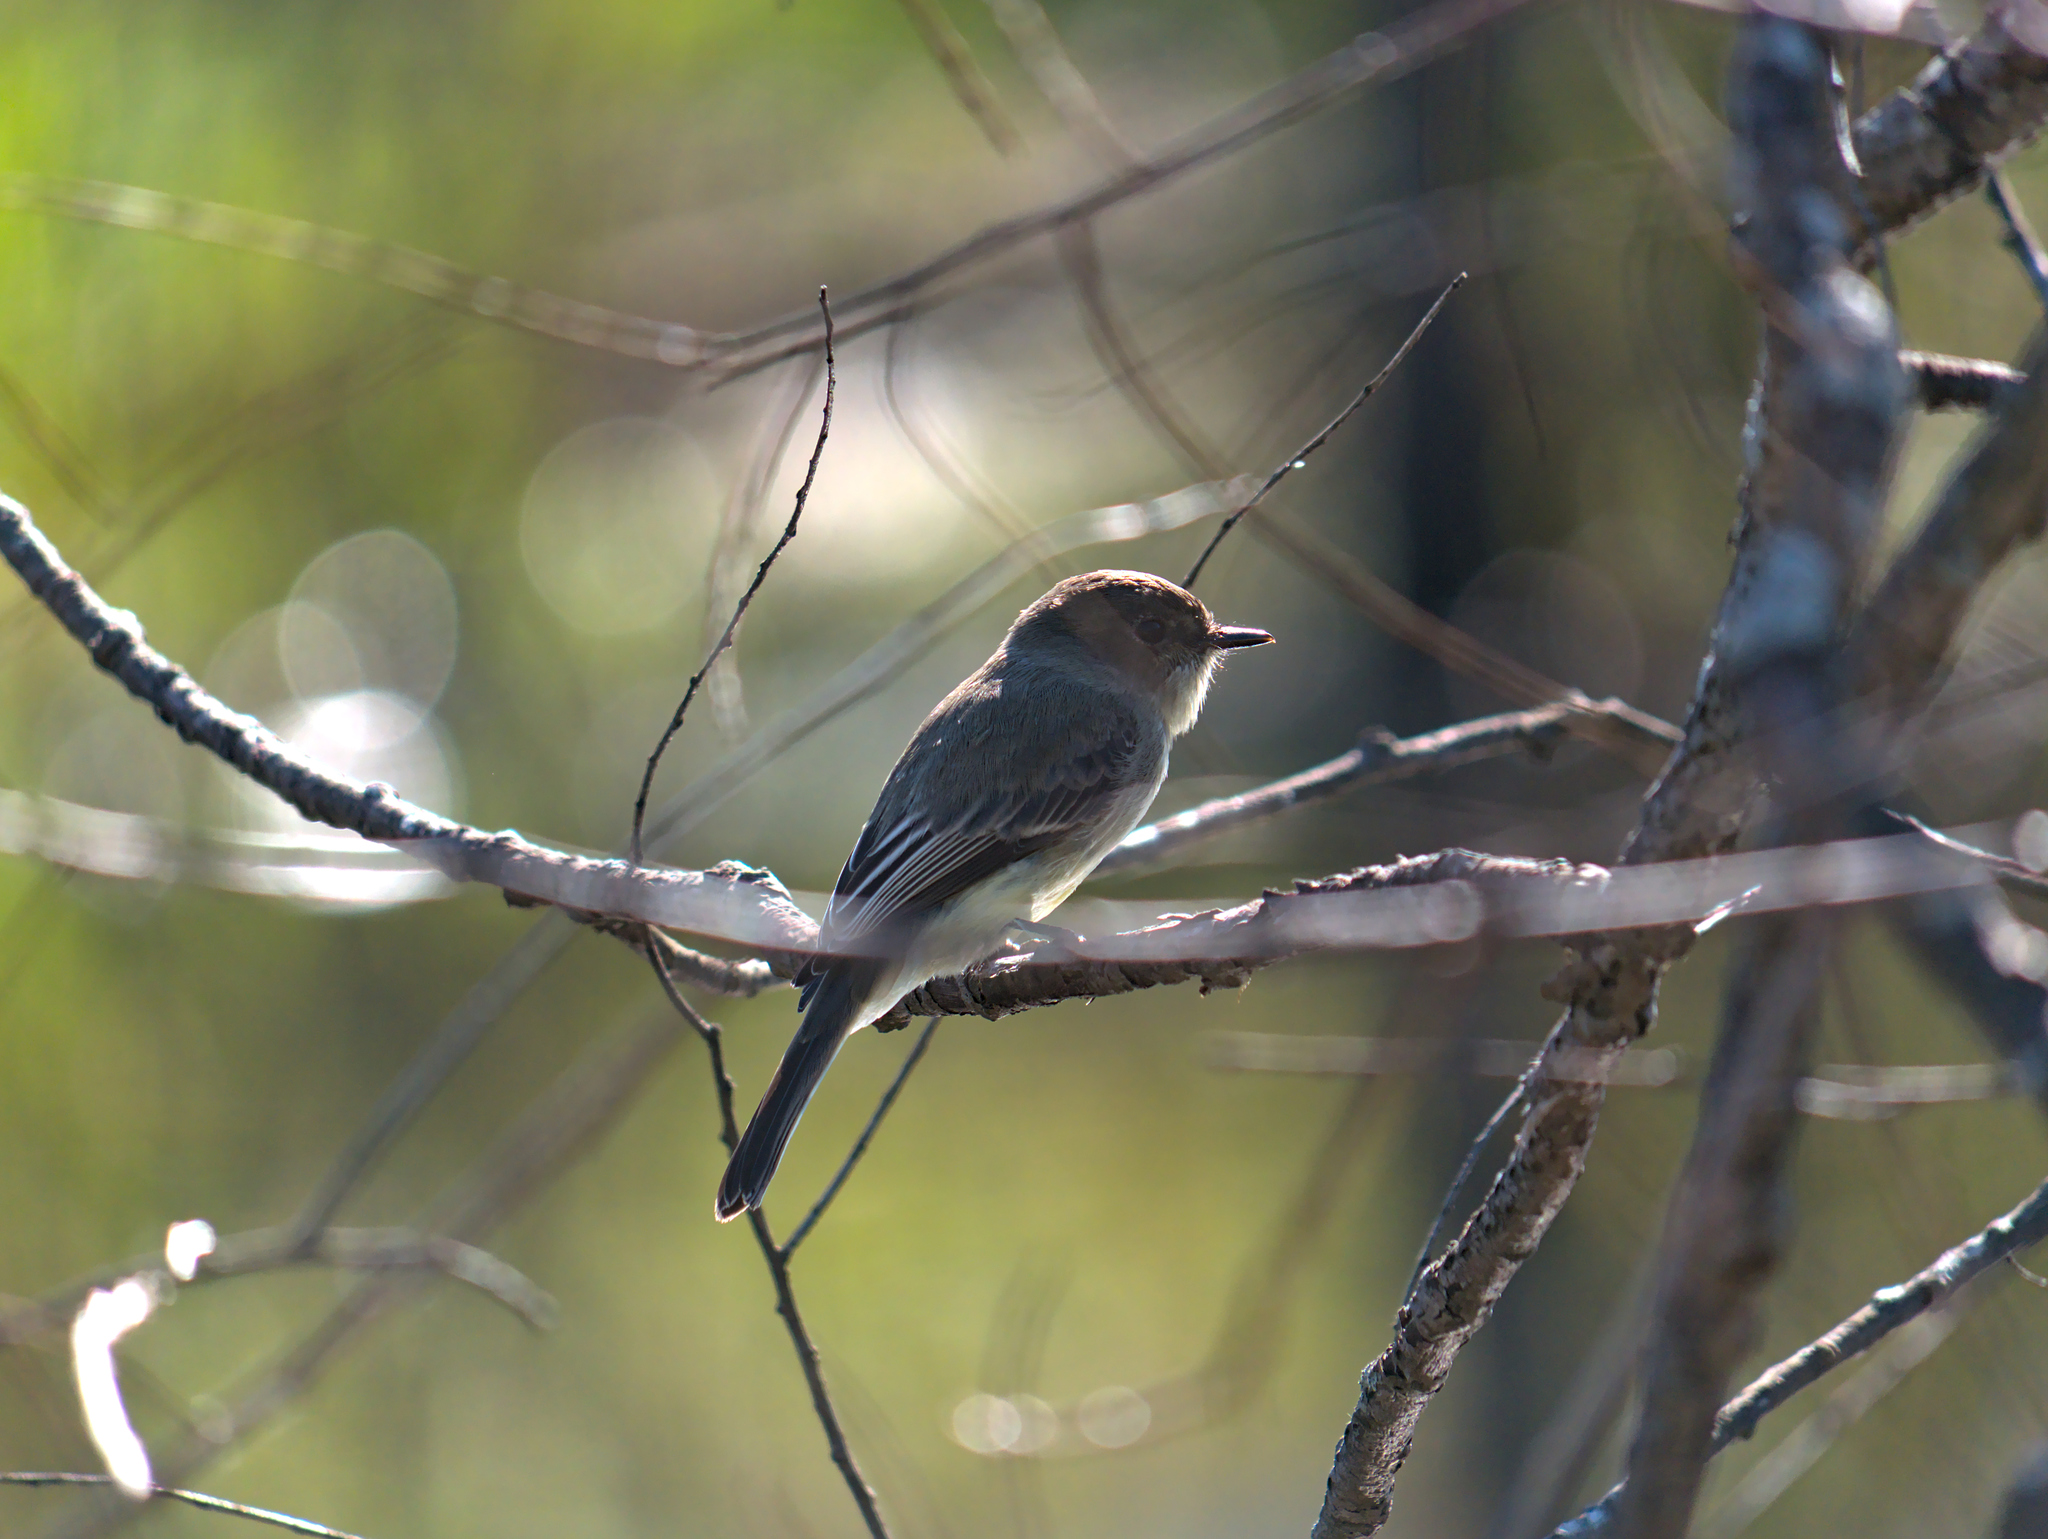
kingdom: Animalia
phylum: Chordata
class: Aves
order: Passeriformes
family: Tyrannidae
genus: Sayornis
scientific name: Sayornis phoebe
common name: Eastern phoebe
